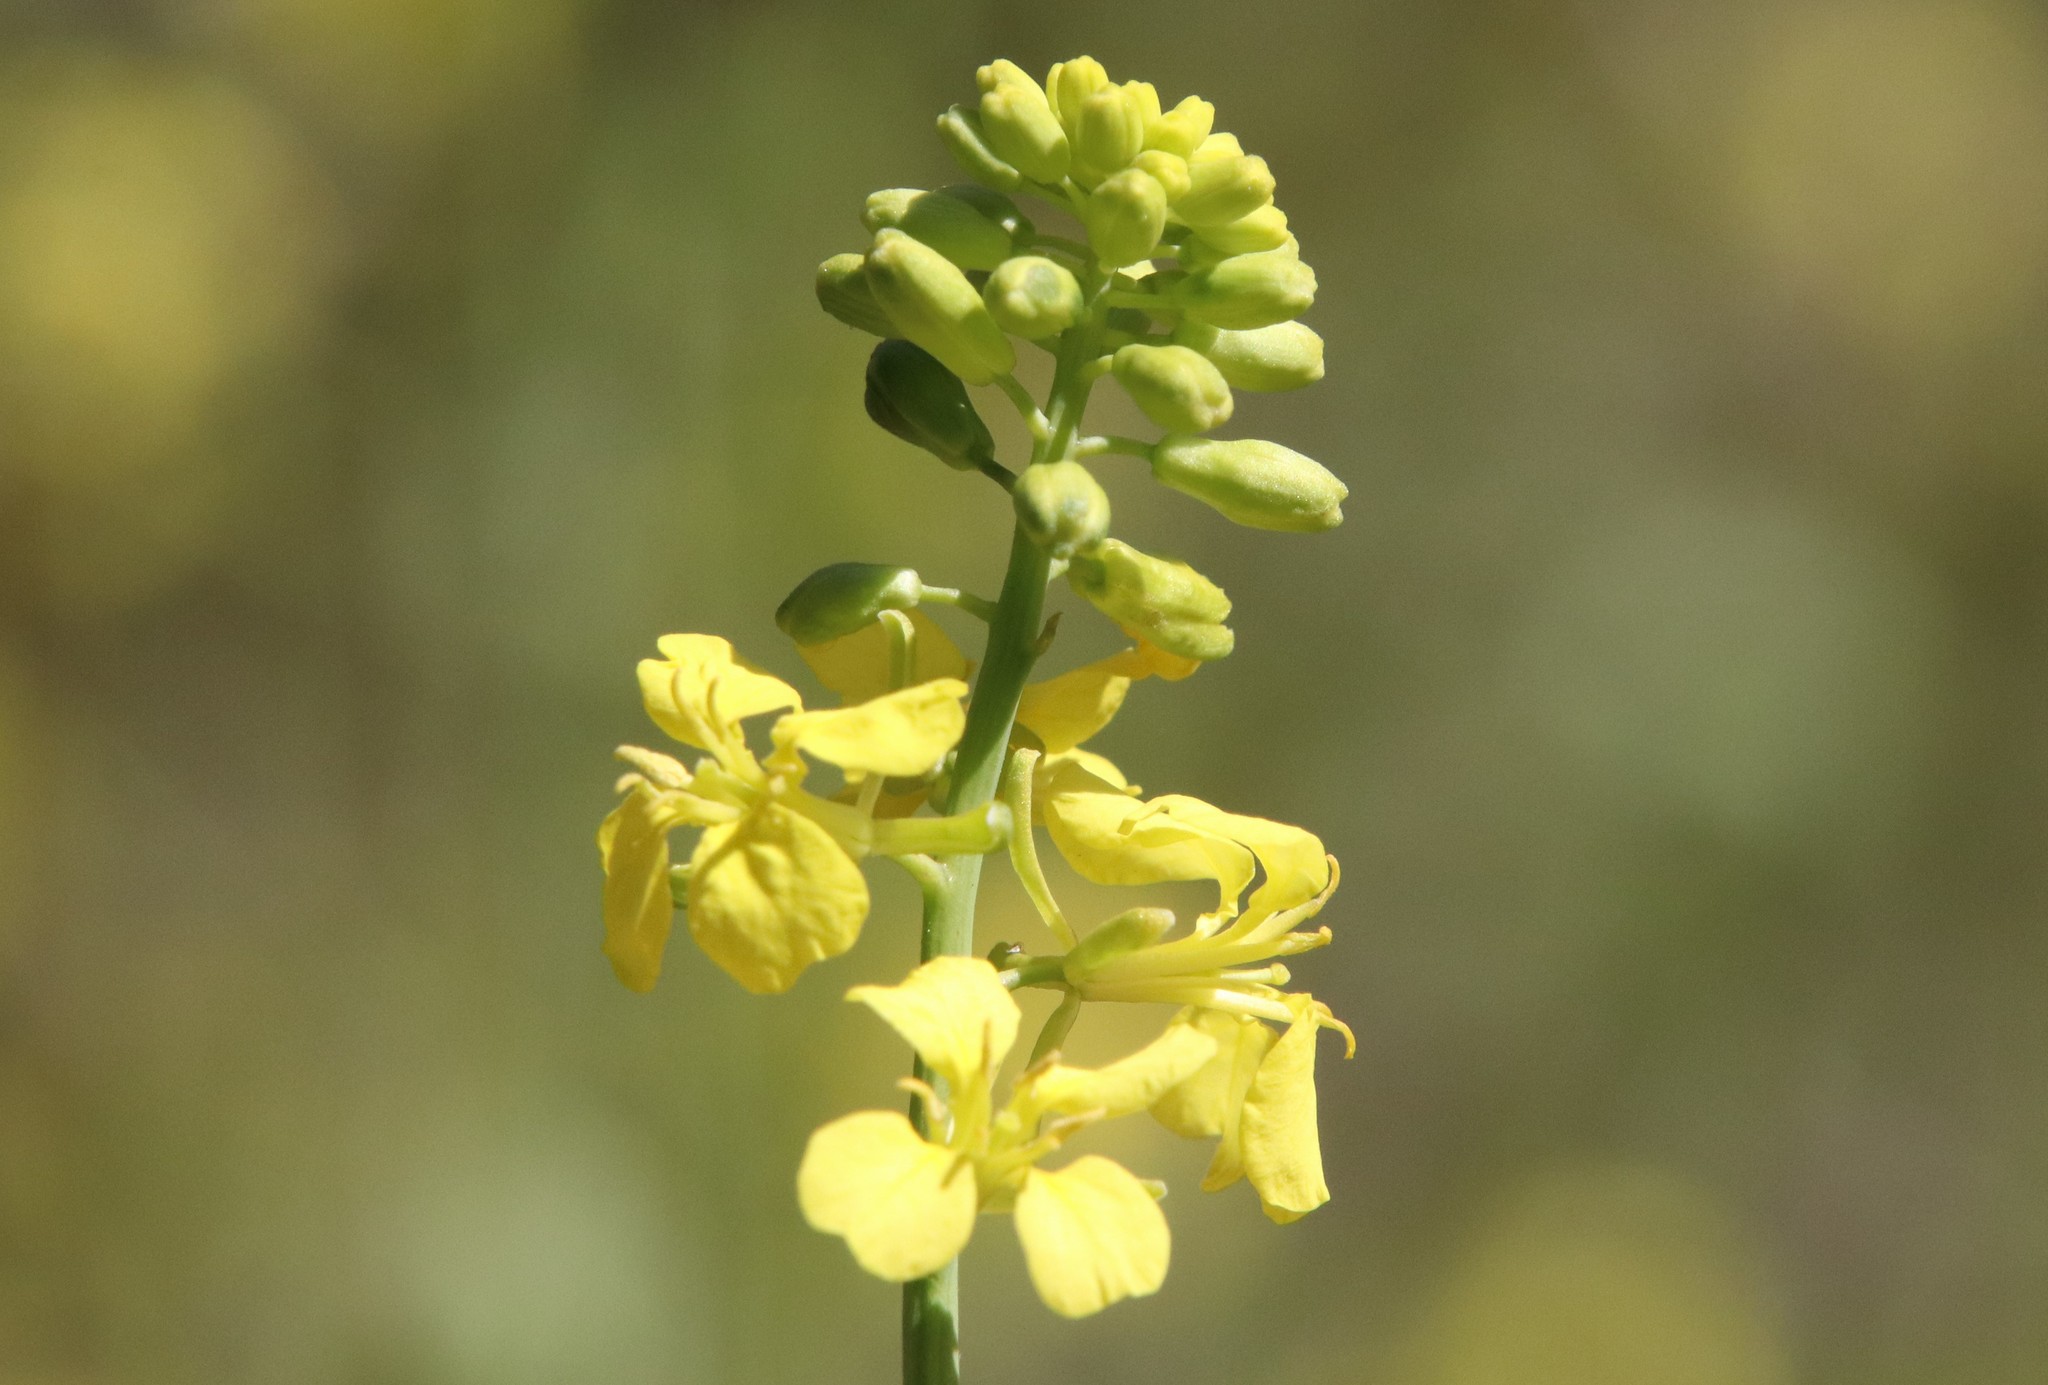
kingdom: Plantae
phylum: Tracheophyta
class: Magnoliopsida
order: Brassicales
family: Brassicaceae
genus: Brassica
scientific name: Brassica nigra
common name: Black mustard
